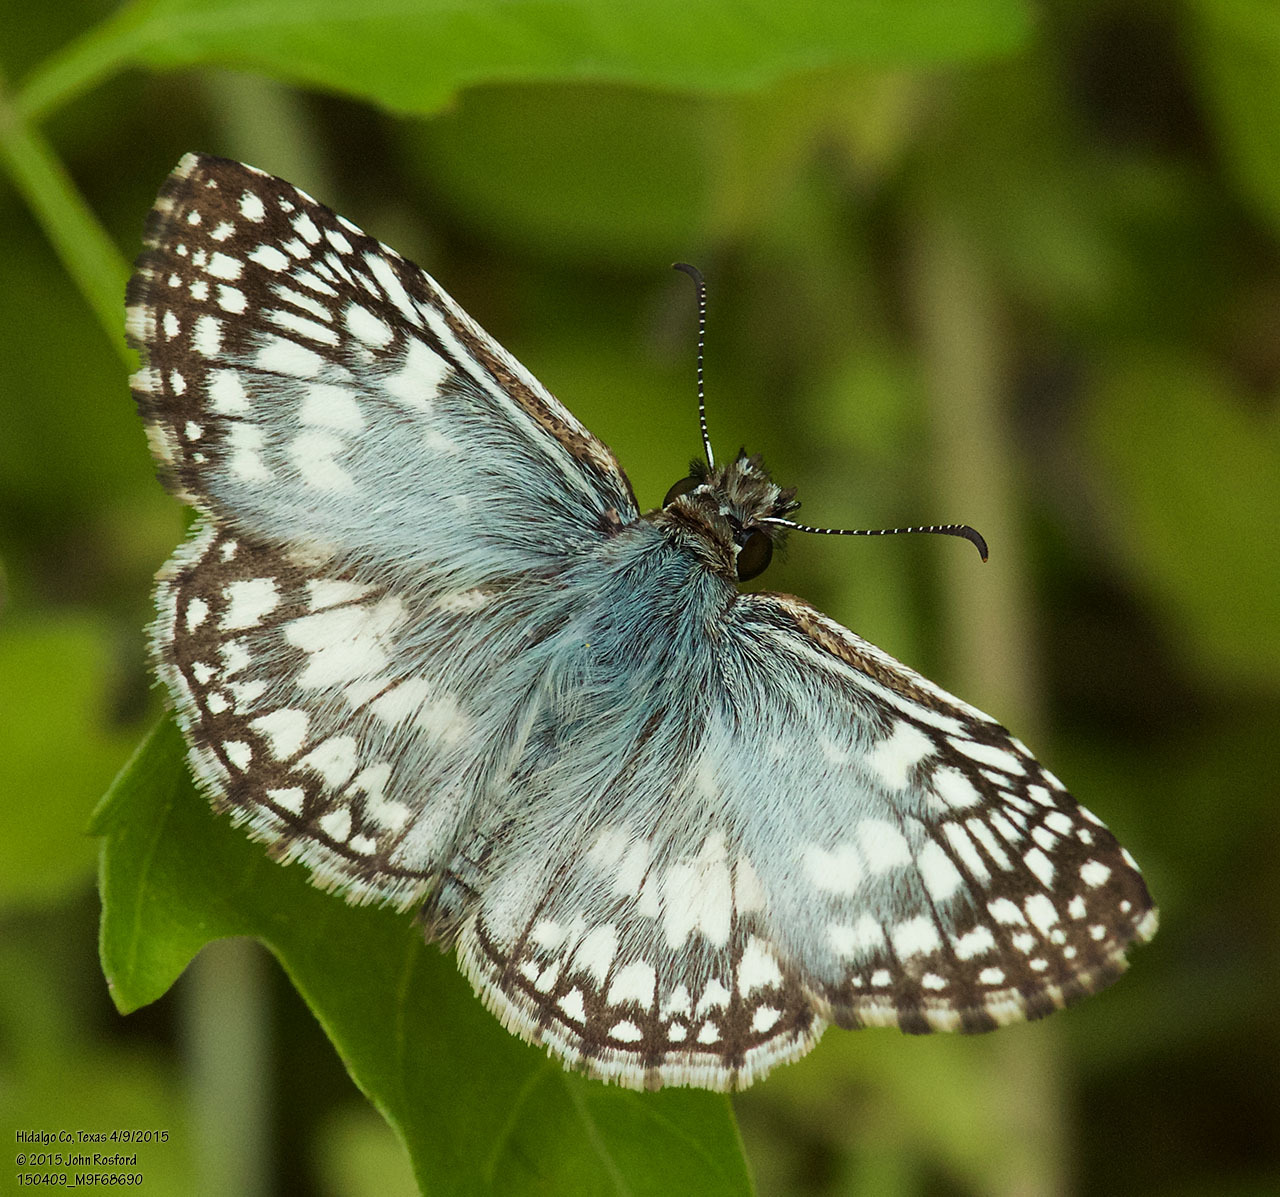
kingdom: Animalia
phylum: Arthropoda
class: Insecta
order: Lepidoptera
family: Hesperiidae
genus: Pyrgus
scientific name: Pyrgus oileus
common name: Tropical checkered-skipper
